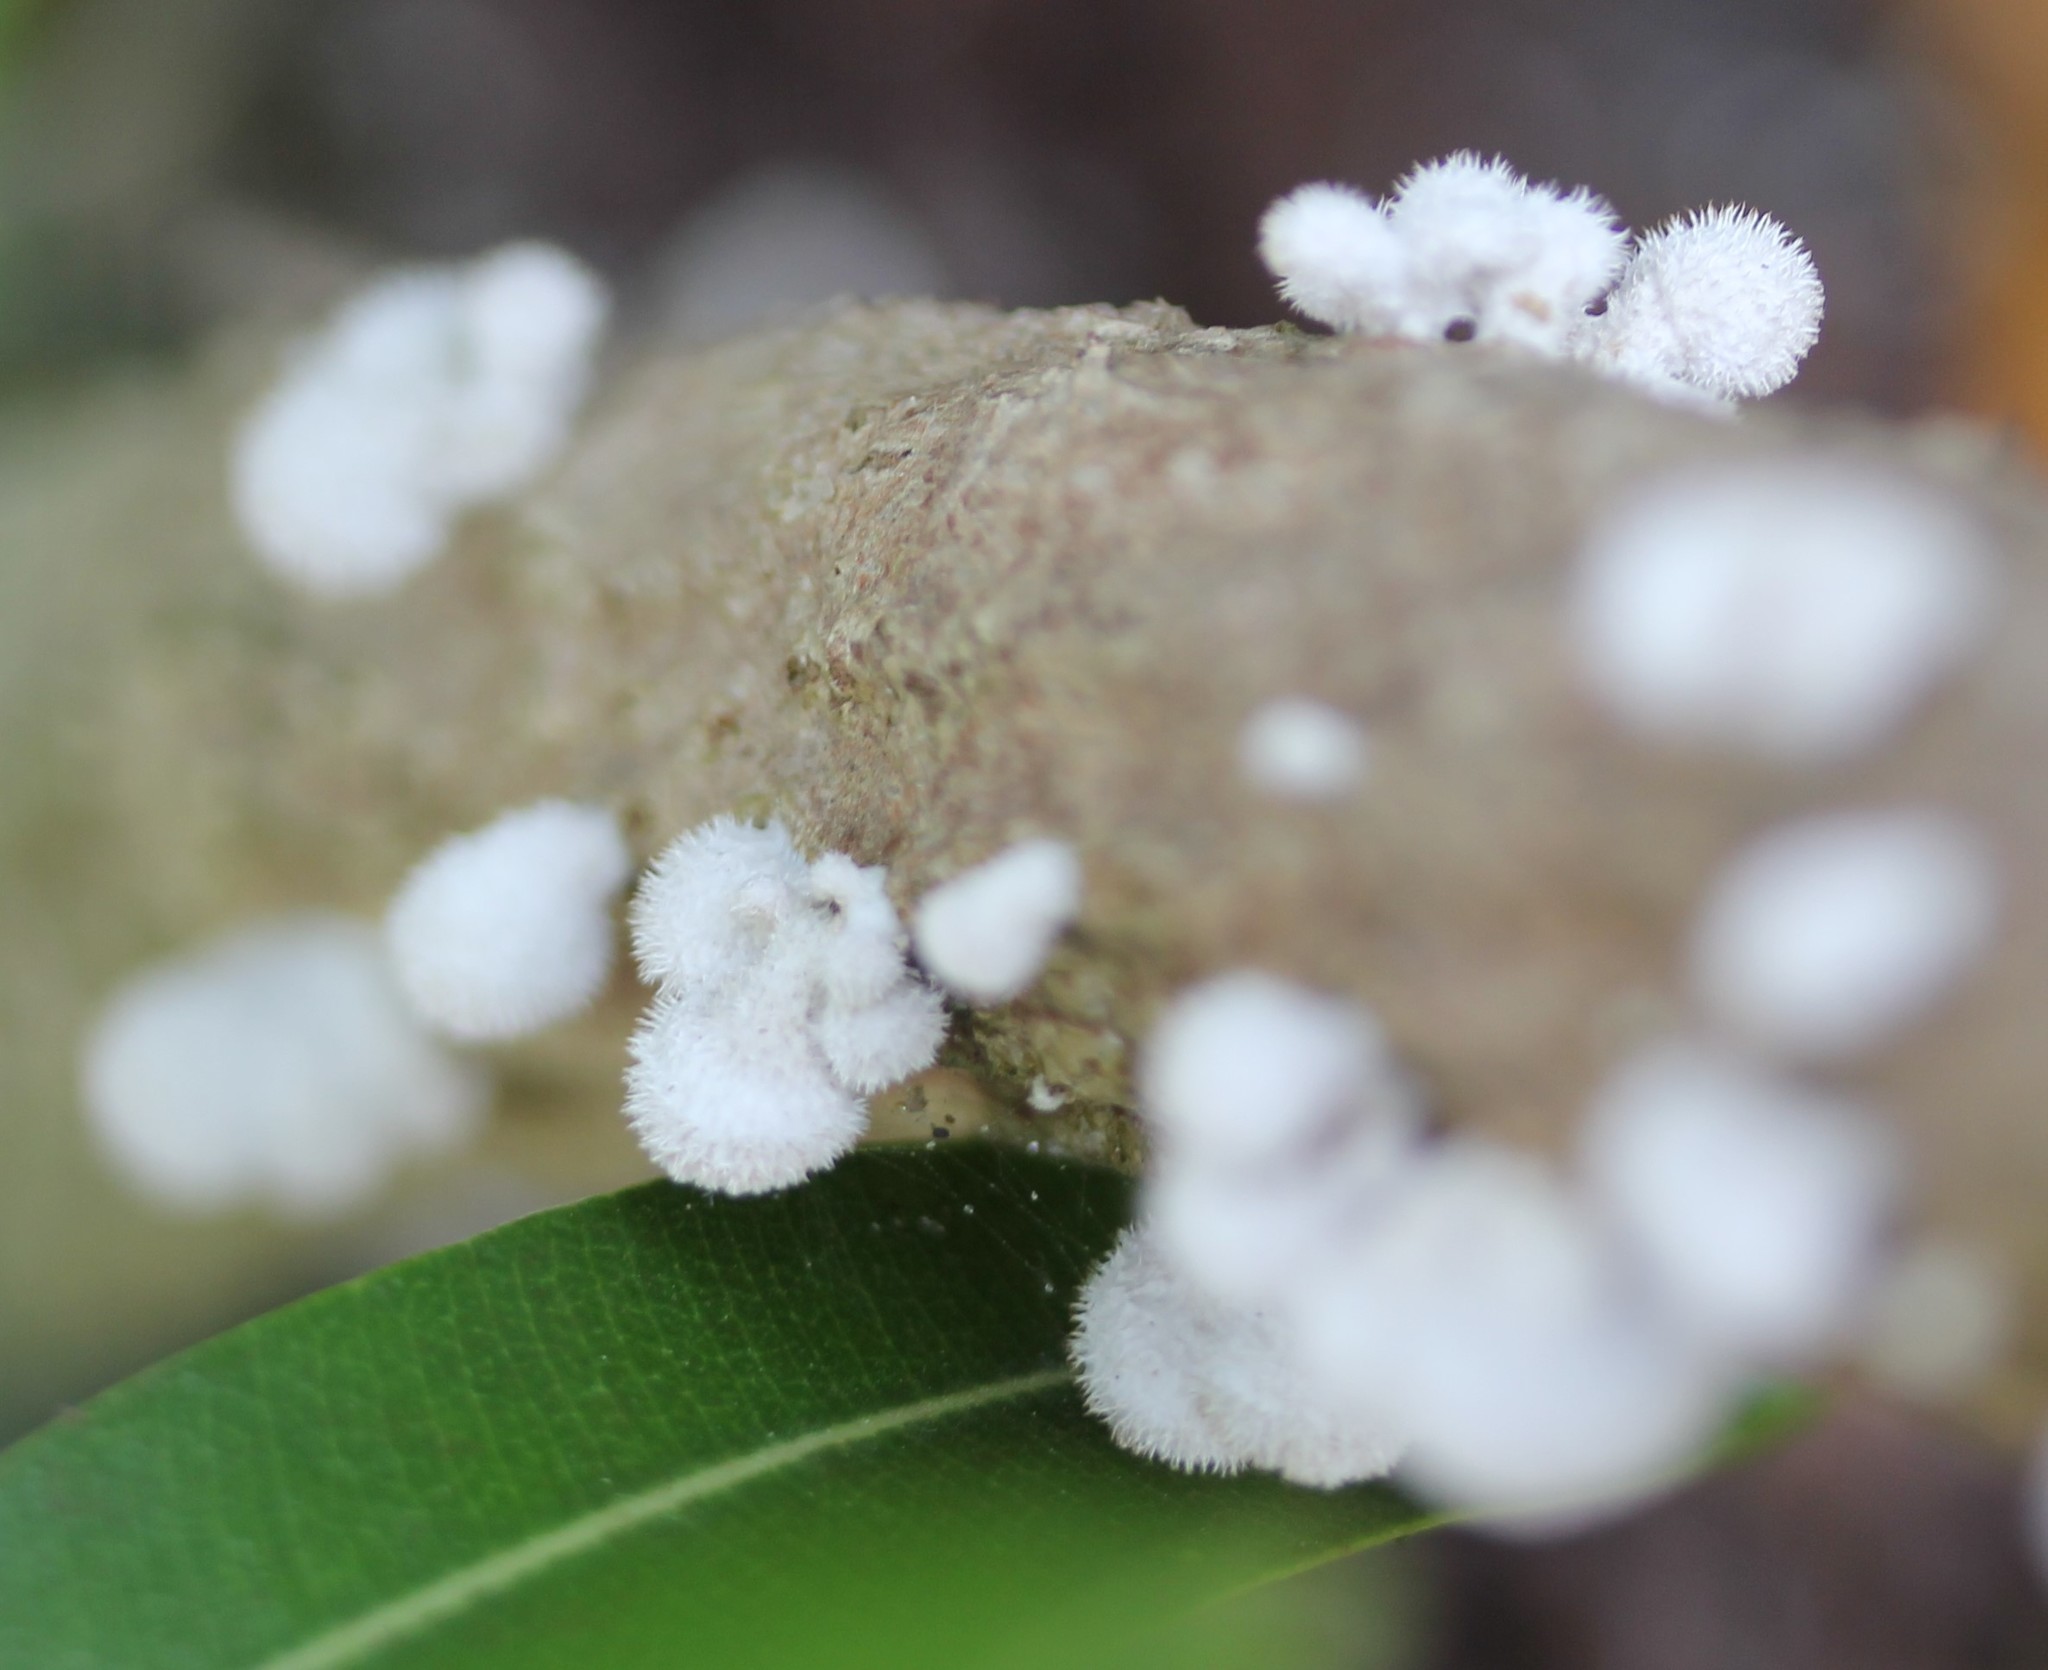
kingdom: Fungi
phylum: Basidiomycota
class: Agaricomycetes
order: Agaricales
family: Schizophyllaceae
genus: Schizophyllum
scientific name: Schizophyllum commune
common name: Common porecrust
